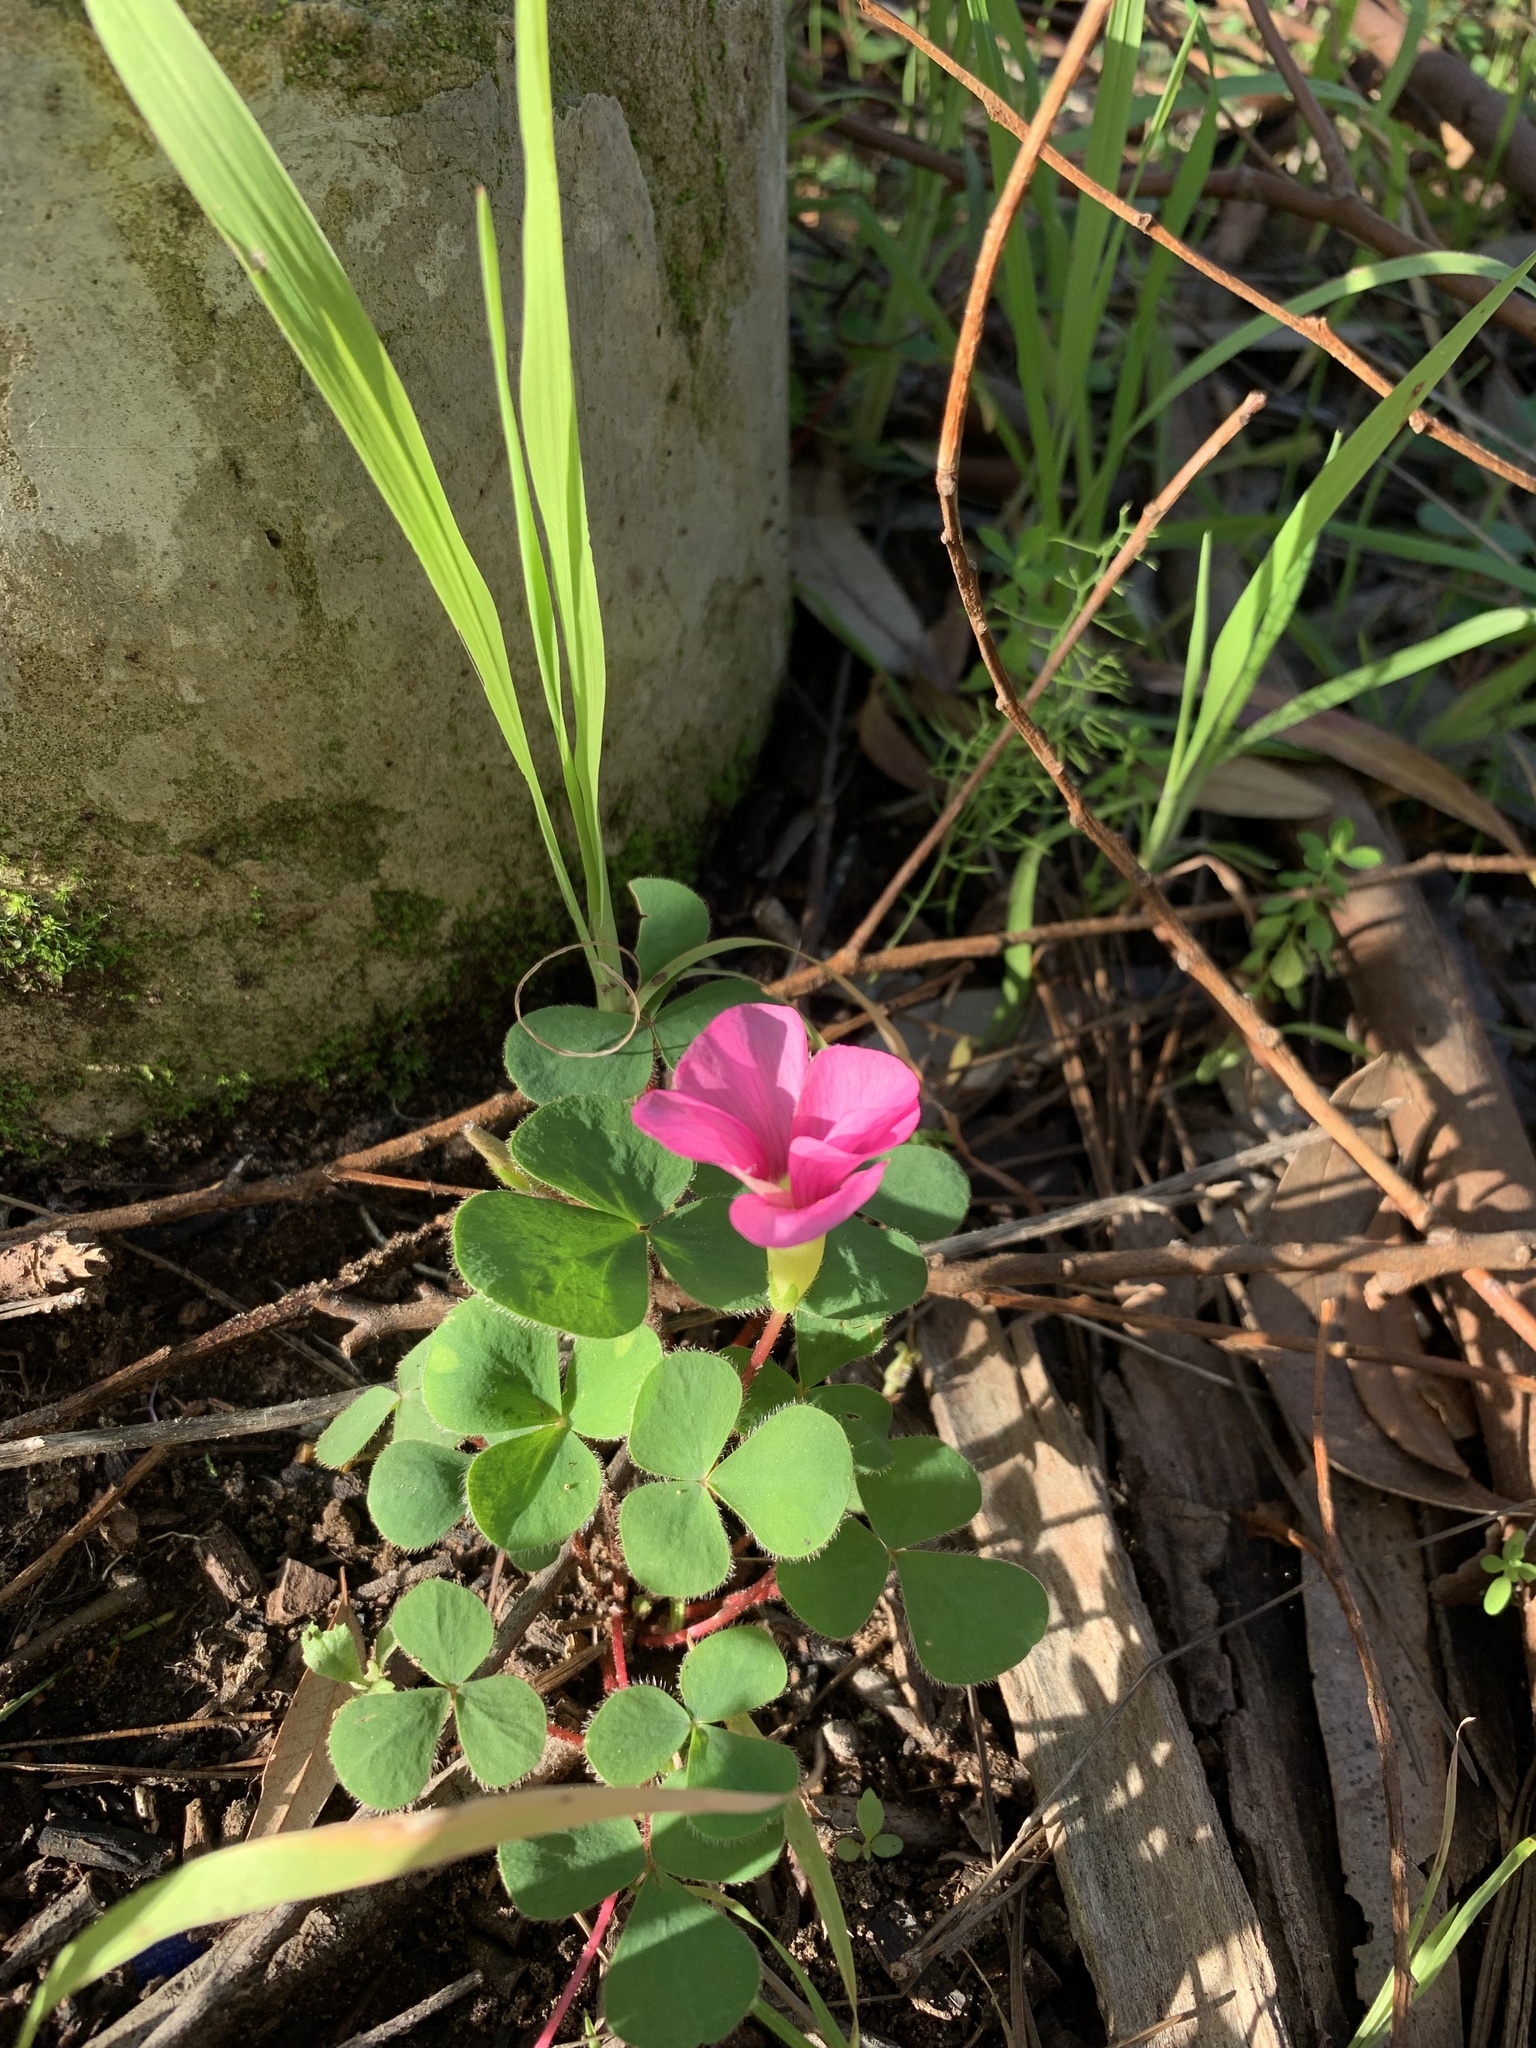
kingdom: Plantae
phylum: Tracheophyta
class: Magnoliopsida
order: Oxalidales
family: Oxalidaceae
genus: Oxalis
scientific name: Oxalis purpurea
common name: Purple woodsorrel
